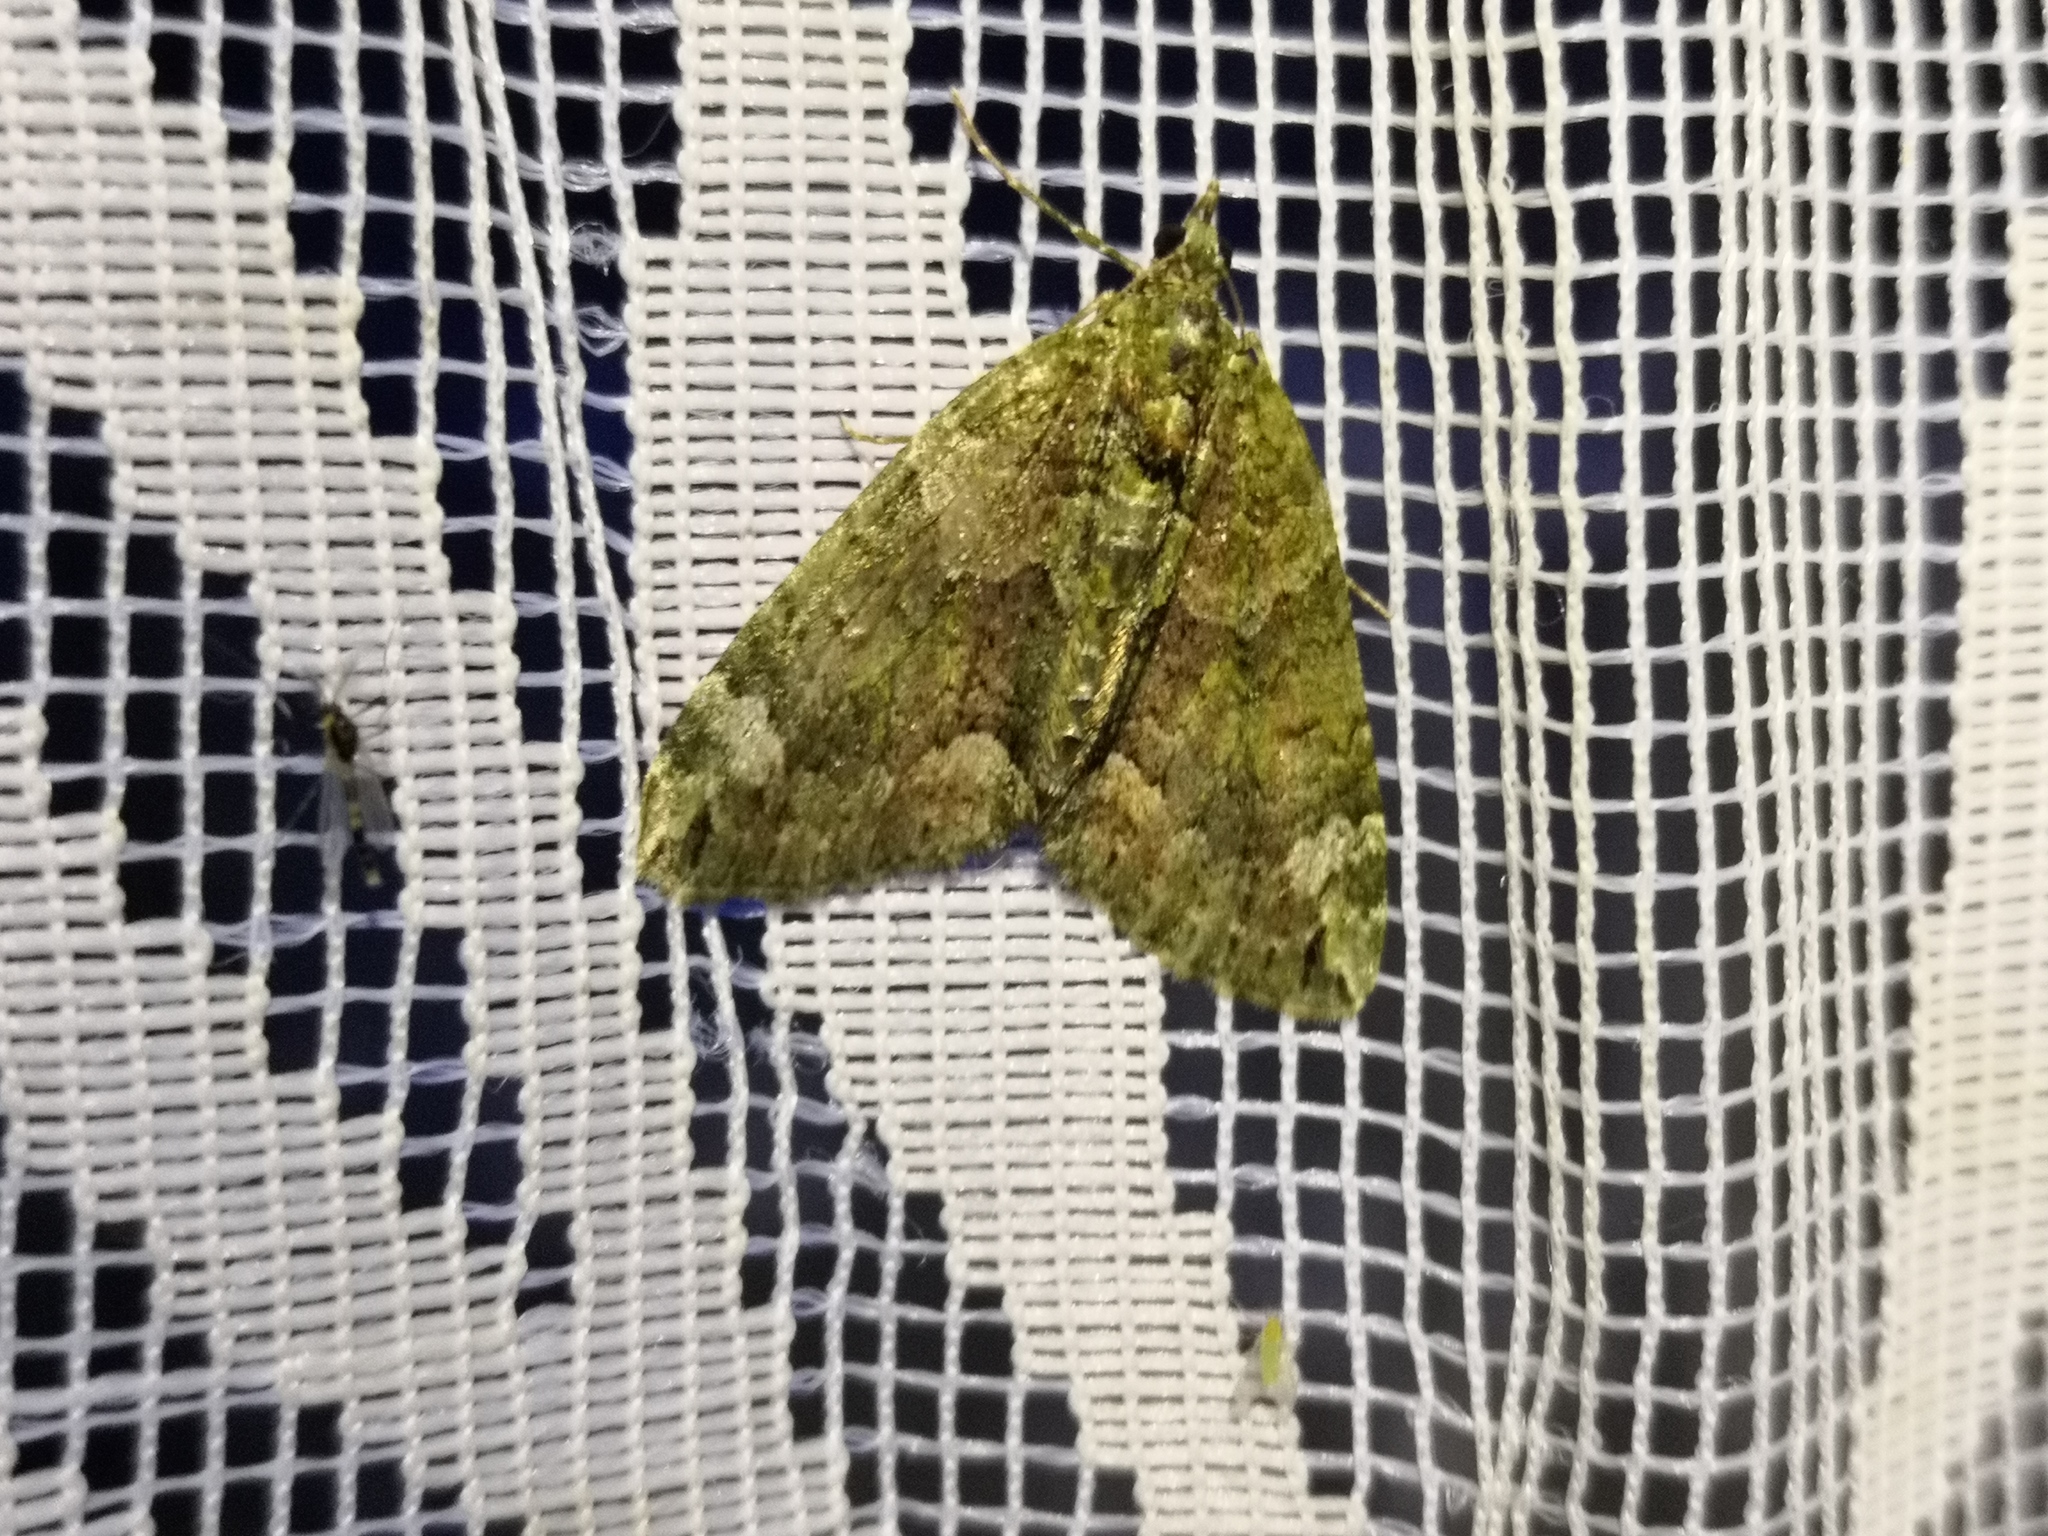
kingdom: Animalia
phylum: Arthropoda
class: Insecta
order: Lepidoptera
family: Geometridae
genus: Chloroclysta
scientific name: Chloroclysta siterata
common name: Red-green carpet
